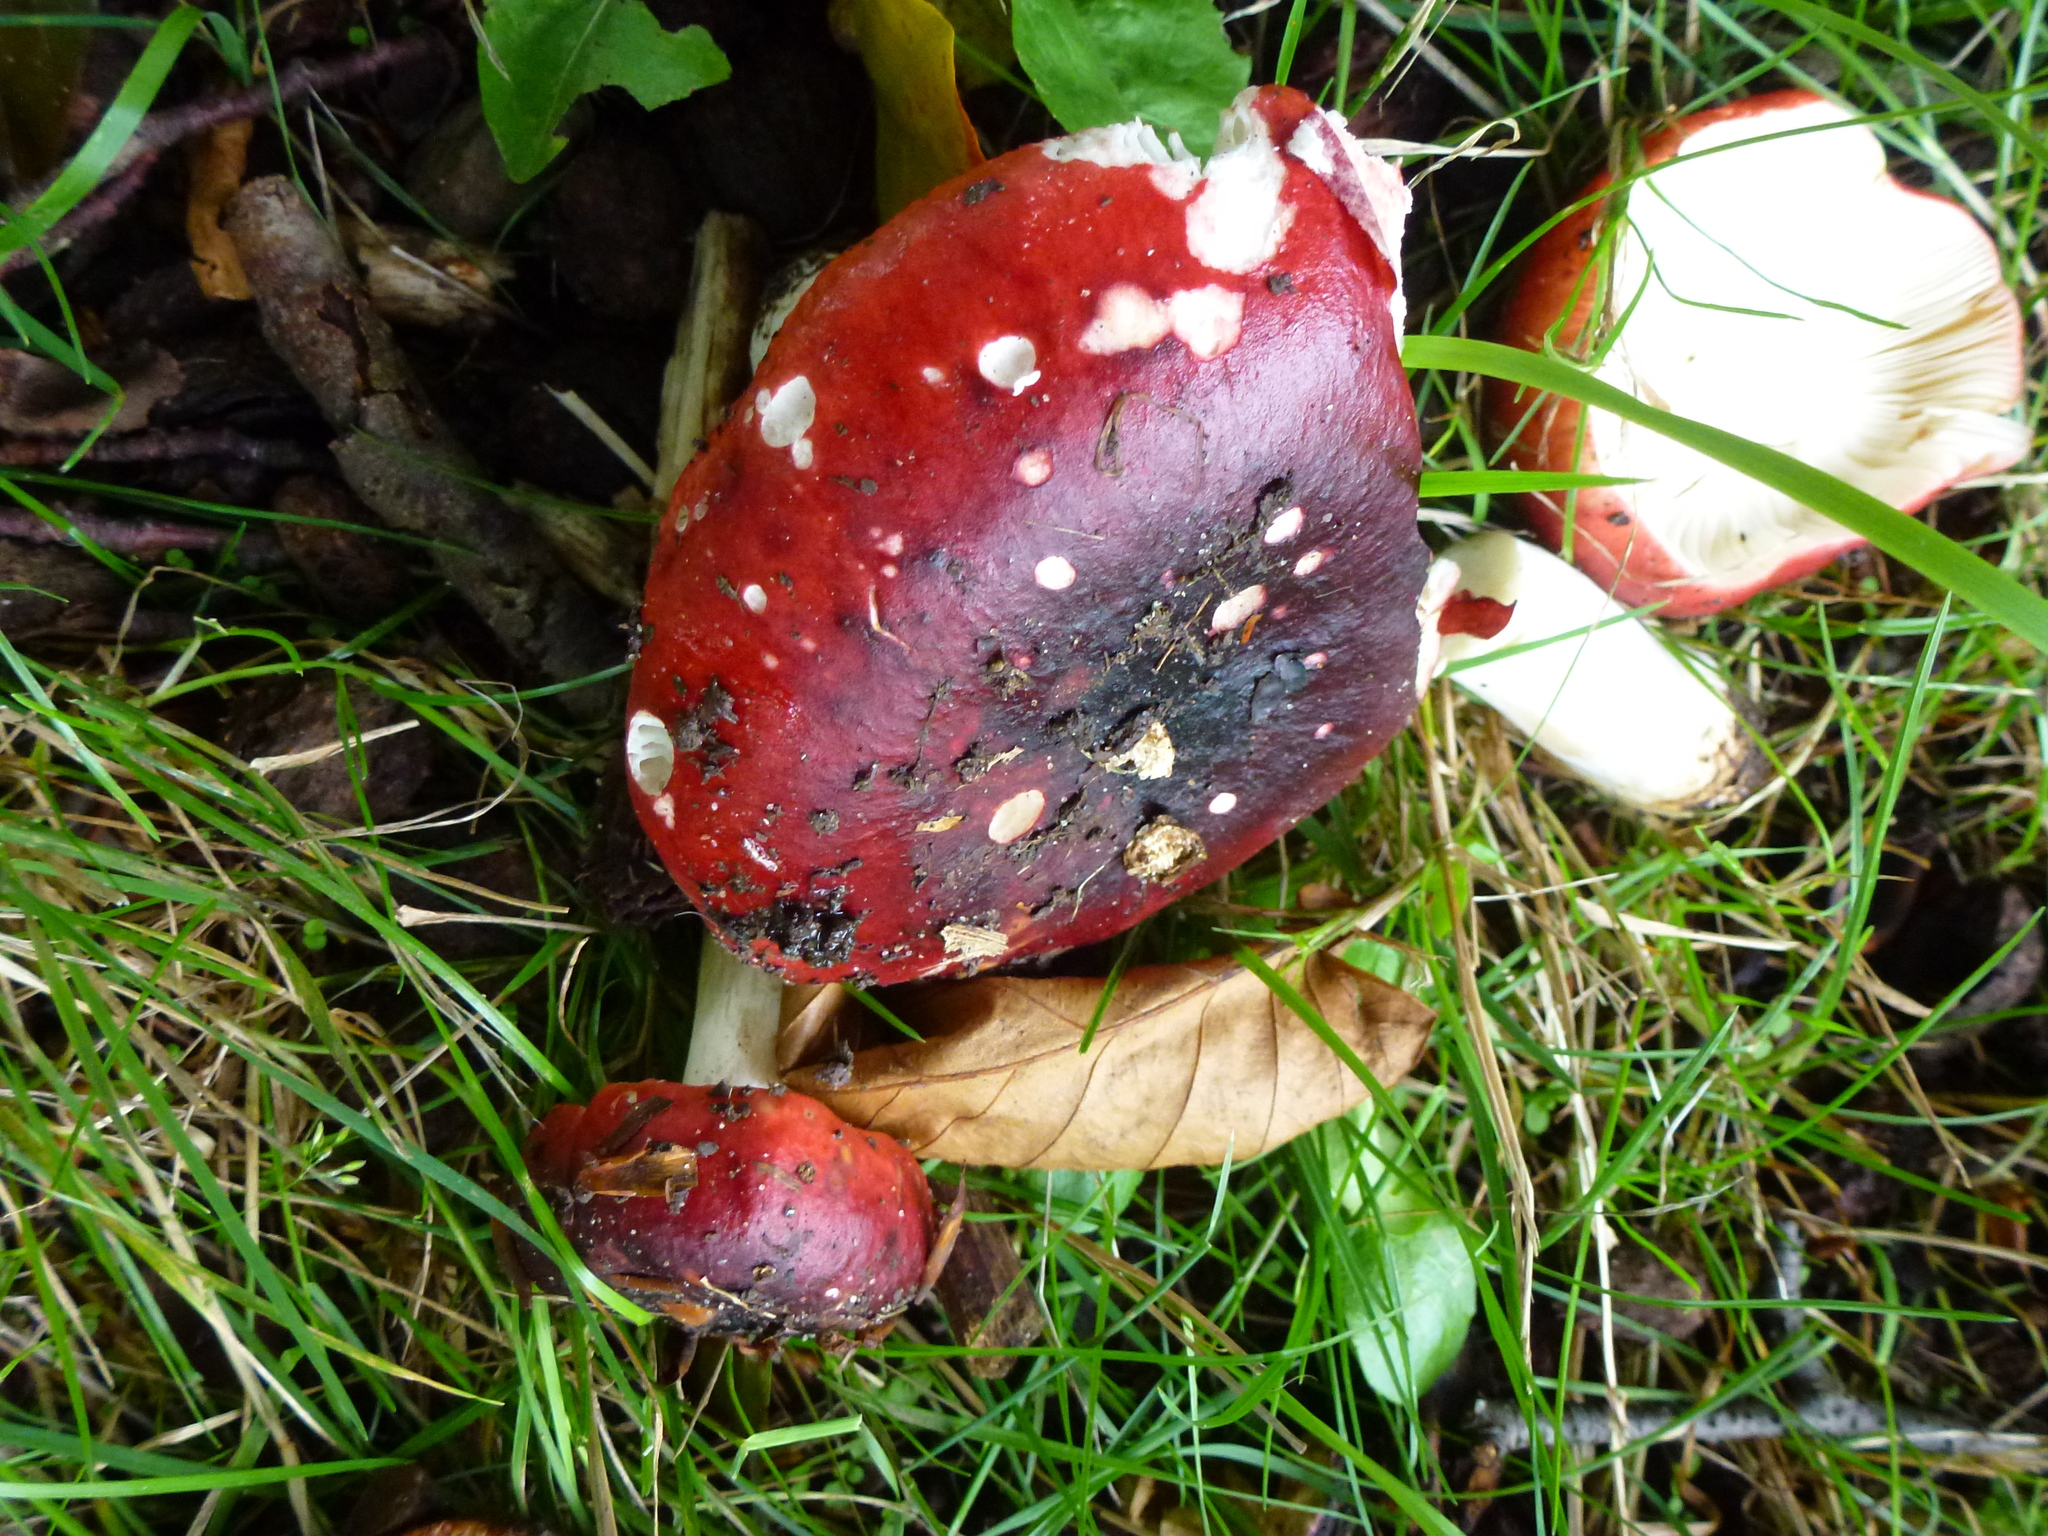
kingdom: Fungi
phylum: Basidiomycota
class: Agaricomycetes
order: Russulales
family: Russulaceae
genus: Russula
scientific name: Russula sanguinea
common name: Bloody brittlegill
